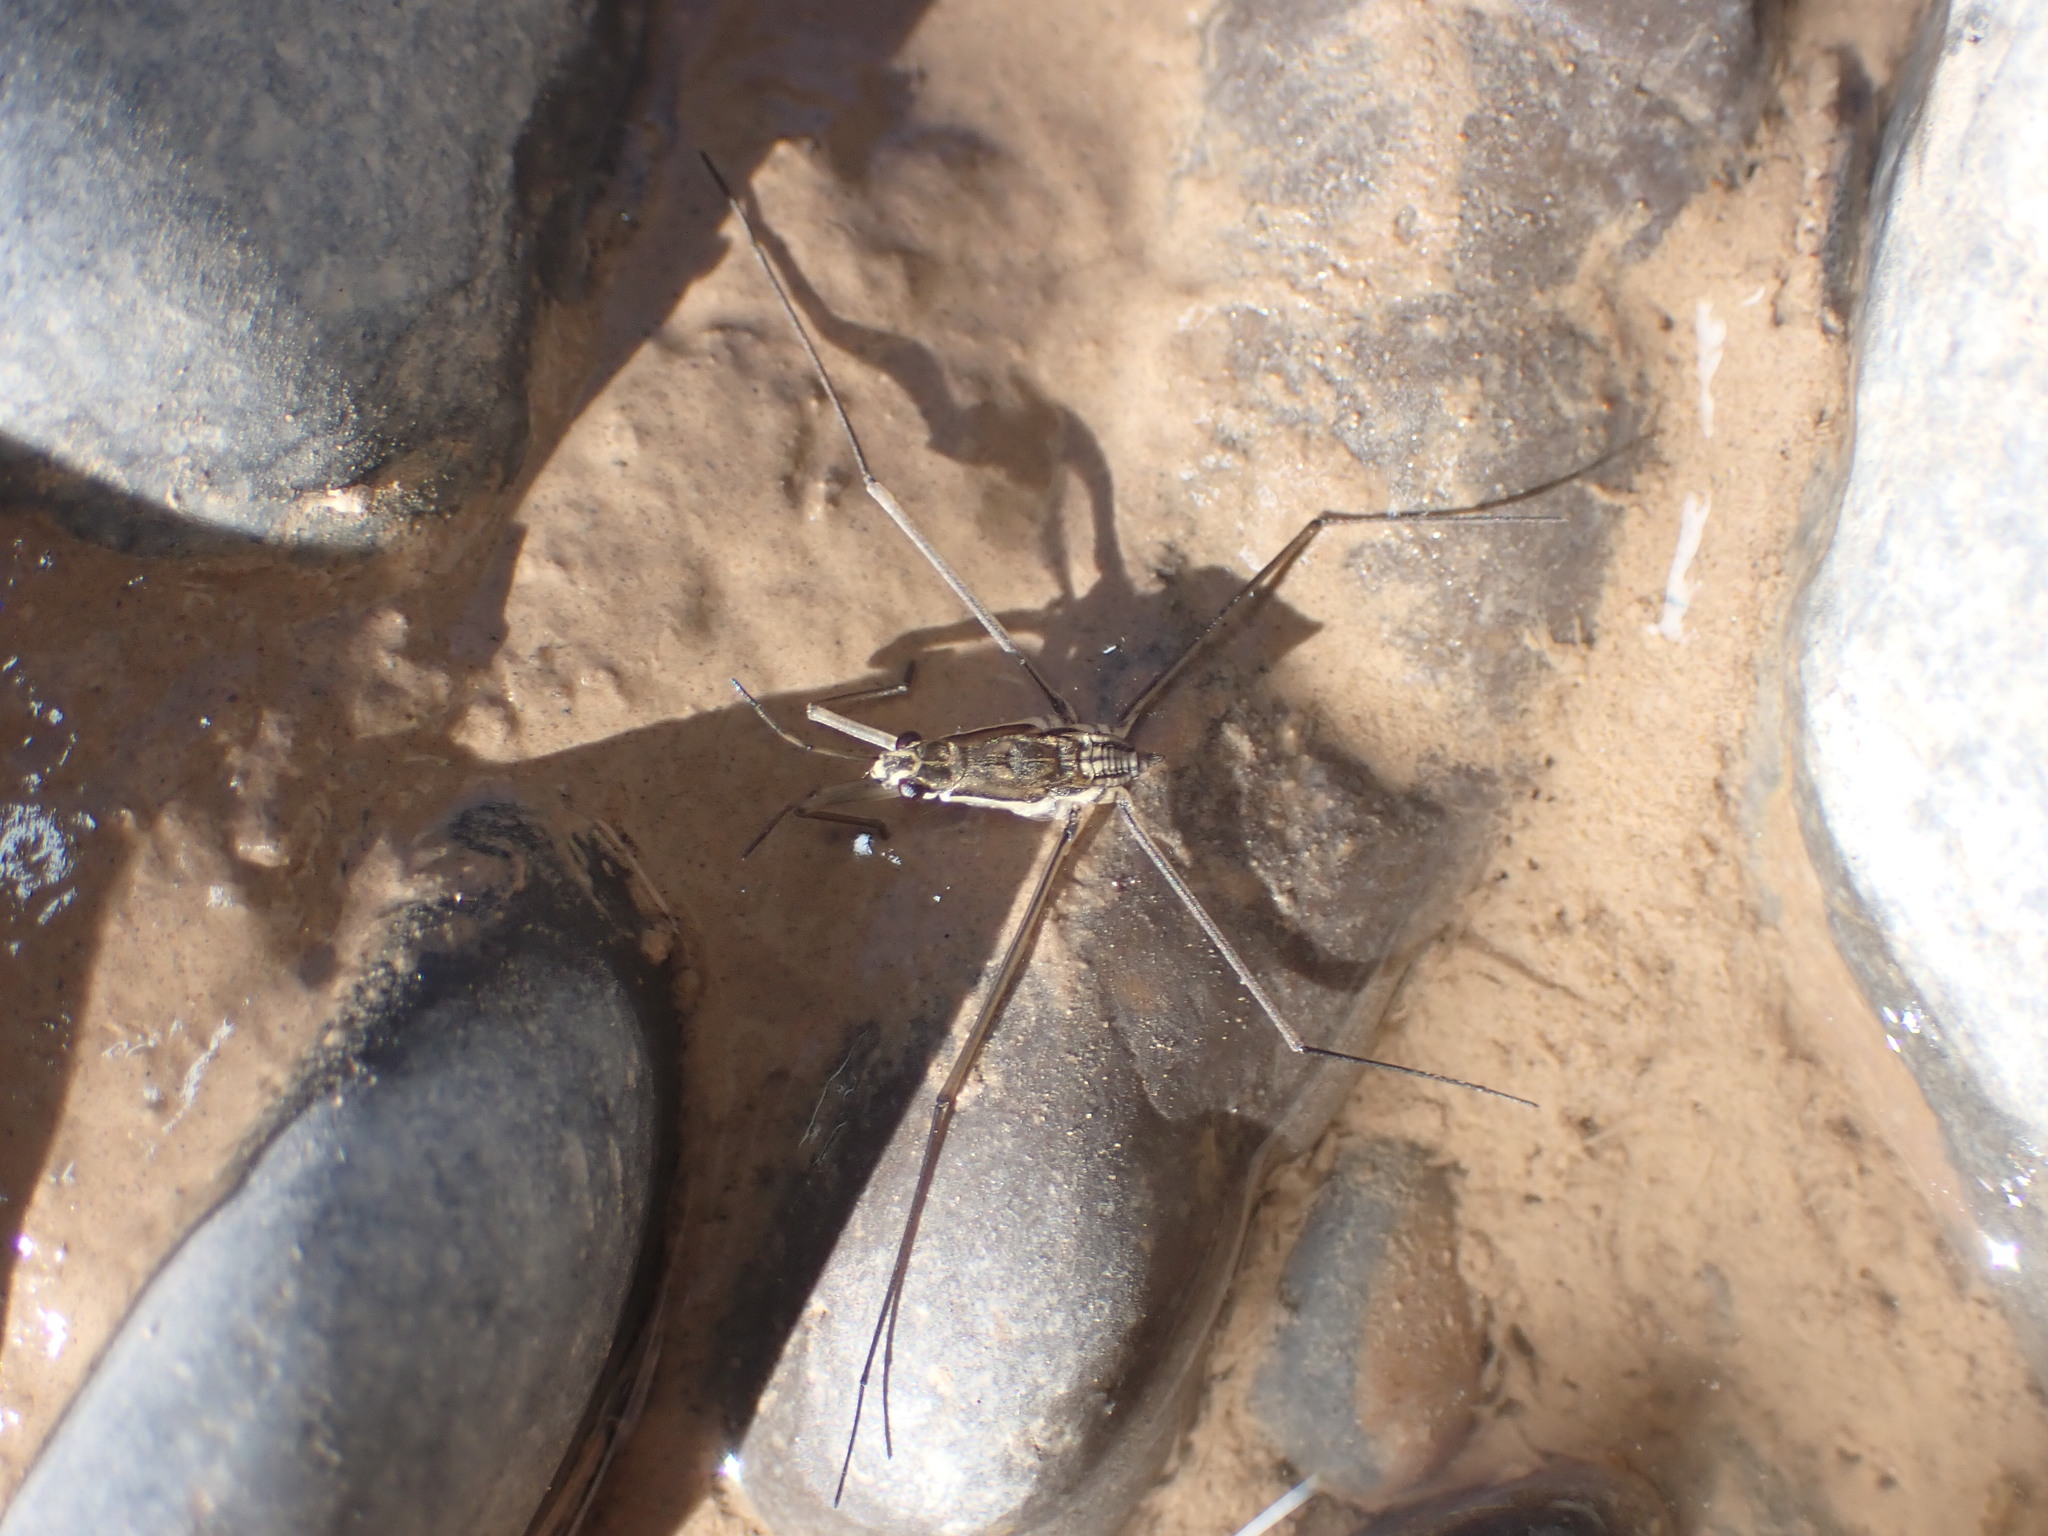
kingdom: Animalia
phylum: Arthropoda
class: Insecta
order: Hemiptera
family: Gerridae
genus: Aquarius
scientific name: Aquarius
